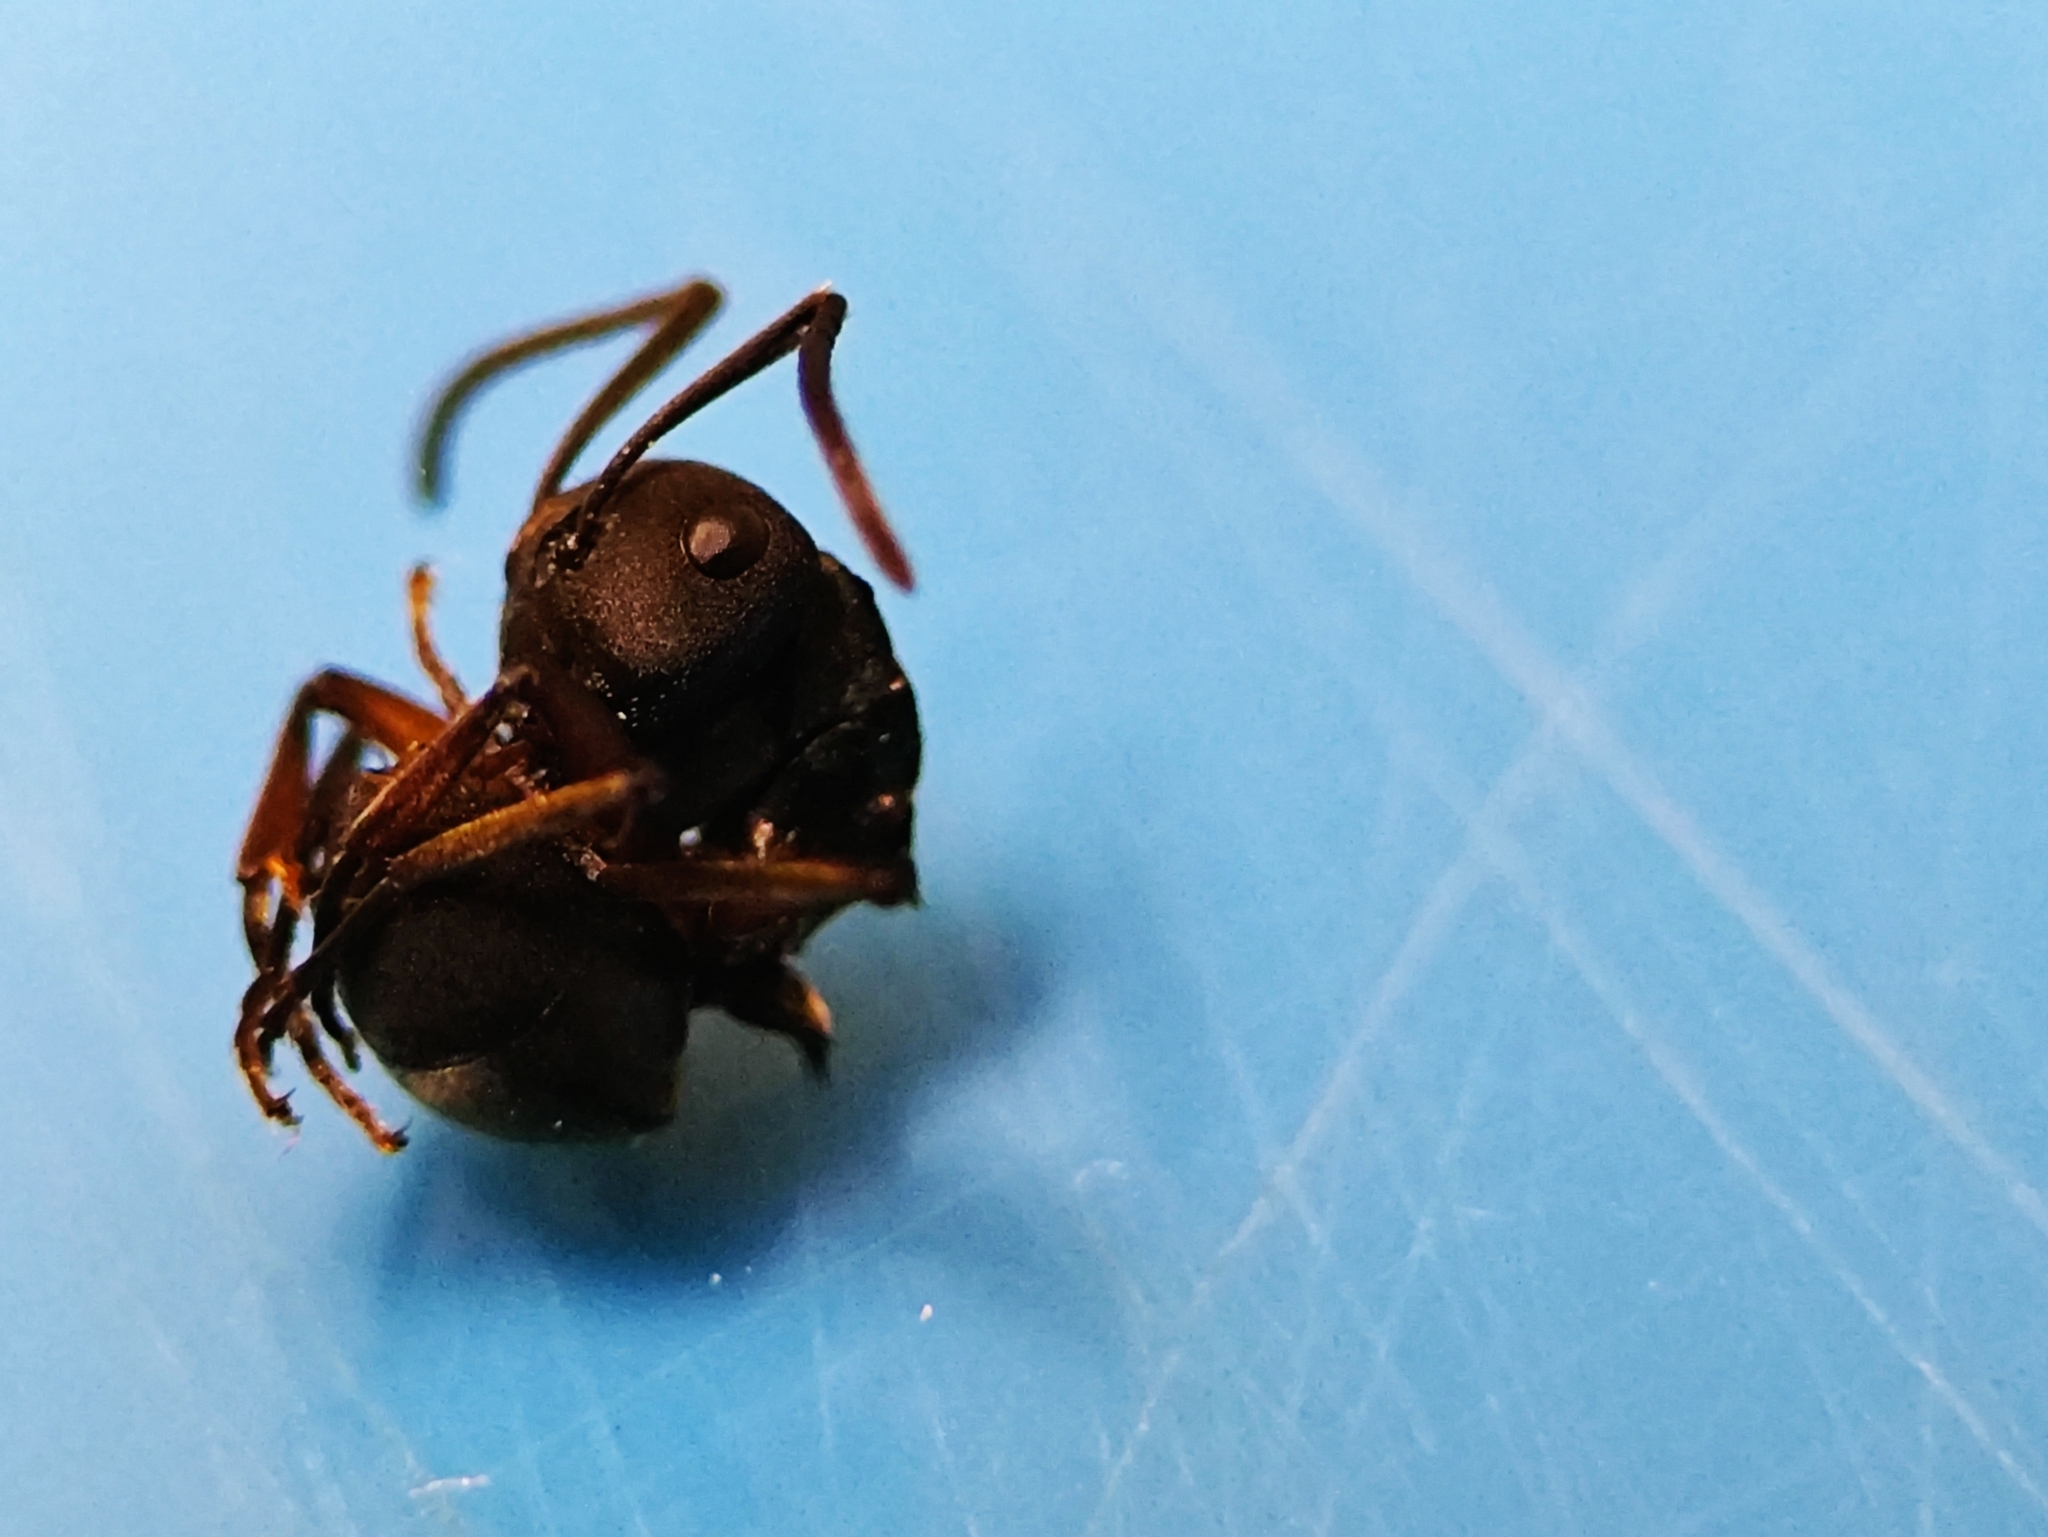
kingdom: Animalia
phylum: Arthropoda
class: Insecta
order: Hymenoptera
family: Formicidae
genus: Polyrhachis
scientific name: Polyrhachis exercita
